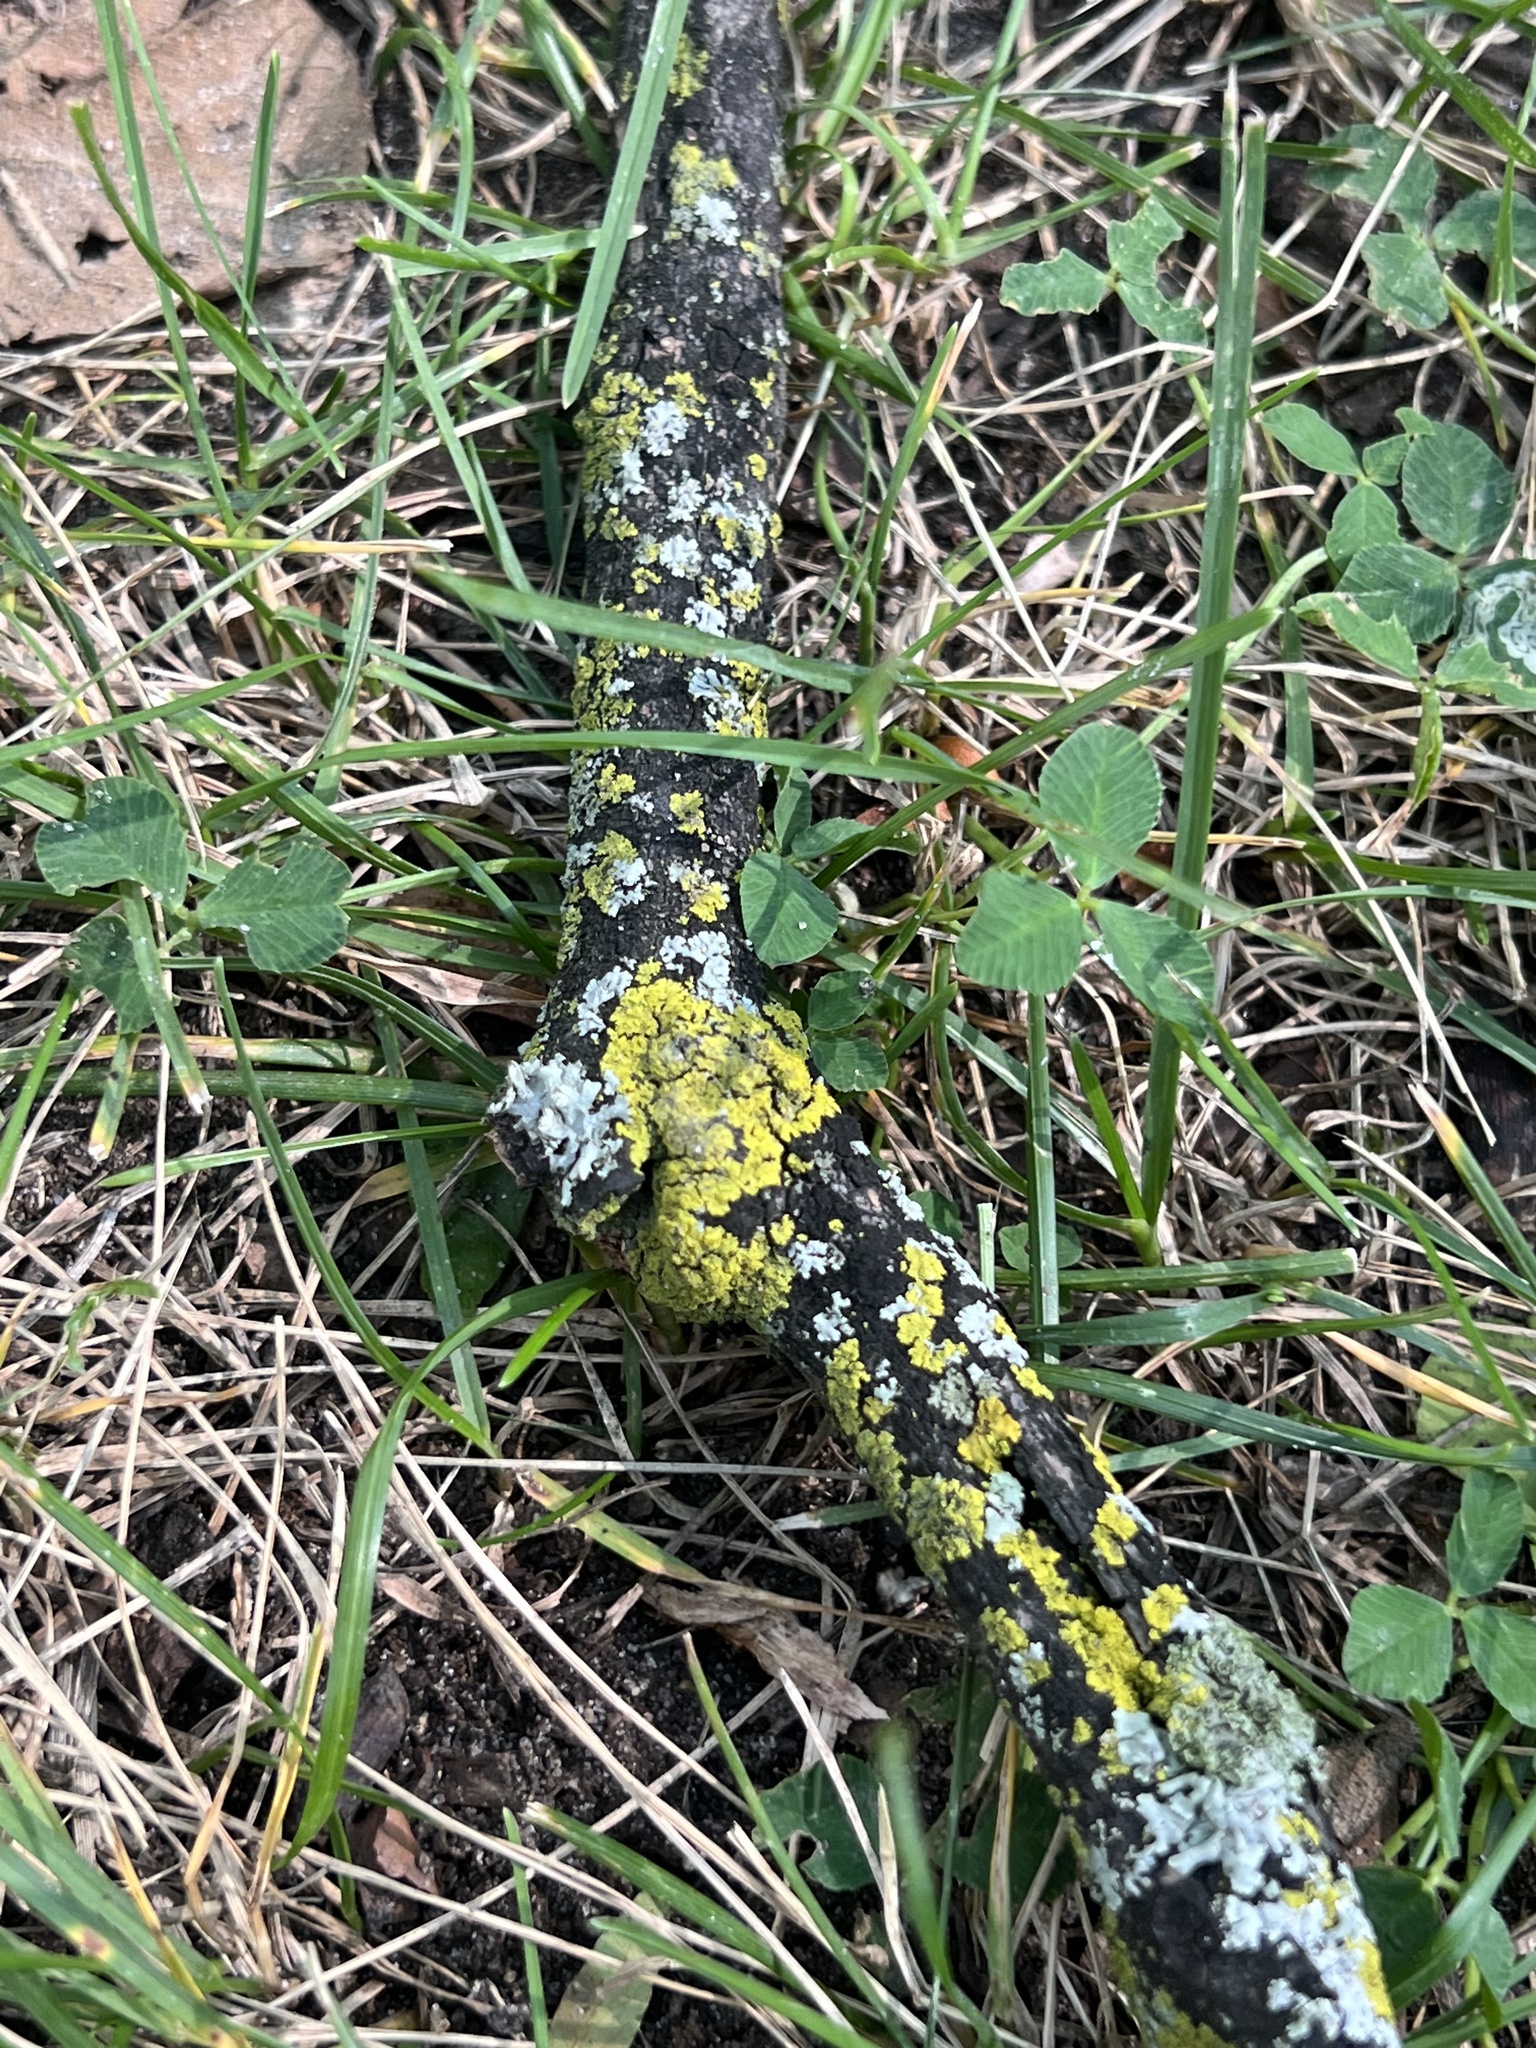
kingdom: Fungi
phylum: Ascomycota
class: Candelariomycetes
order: Candelariales
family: Candelariaceae
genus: Candelaria
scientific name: Candelaria concolor
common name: Candleflame lichen
